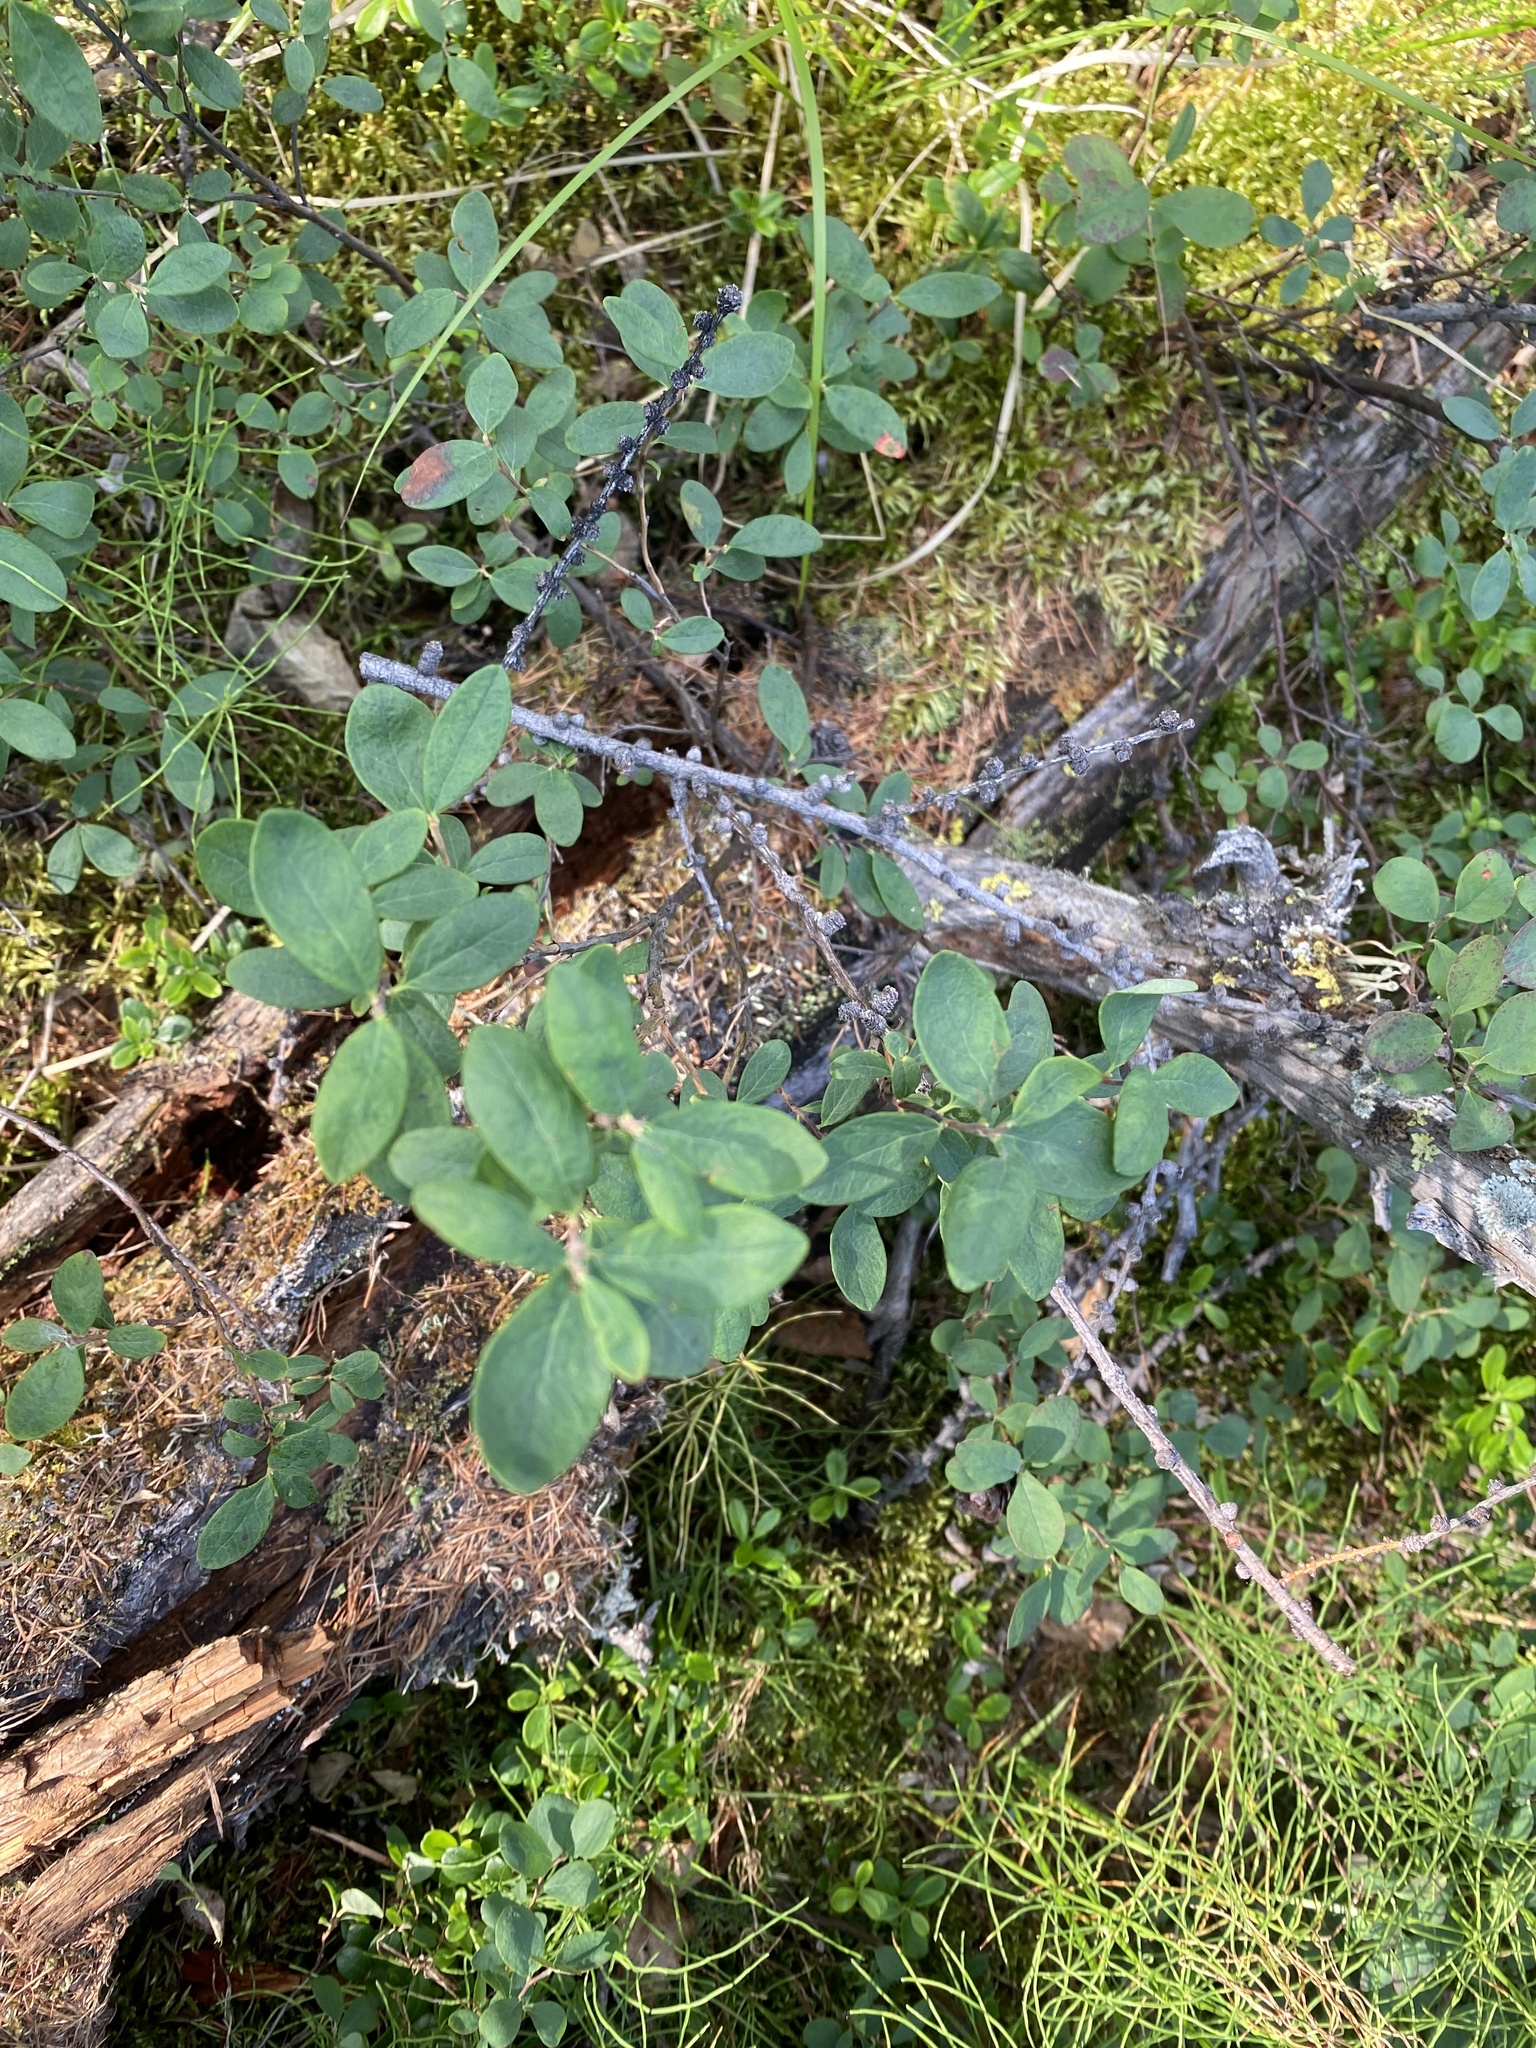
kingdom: Plantae
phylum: Tracheophyta
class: Magnoliopsida
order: Ericales
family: Ericaceae
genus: Vaccinium
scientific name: Vaccinium uliginosum
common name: Bog bilberry
